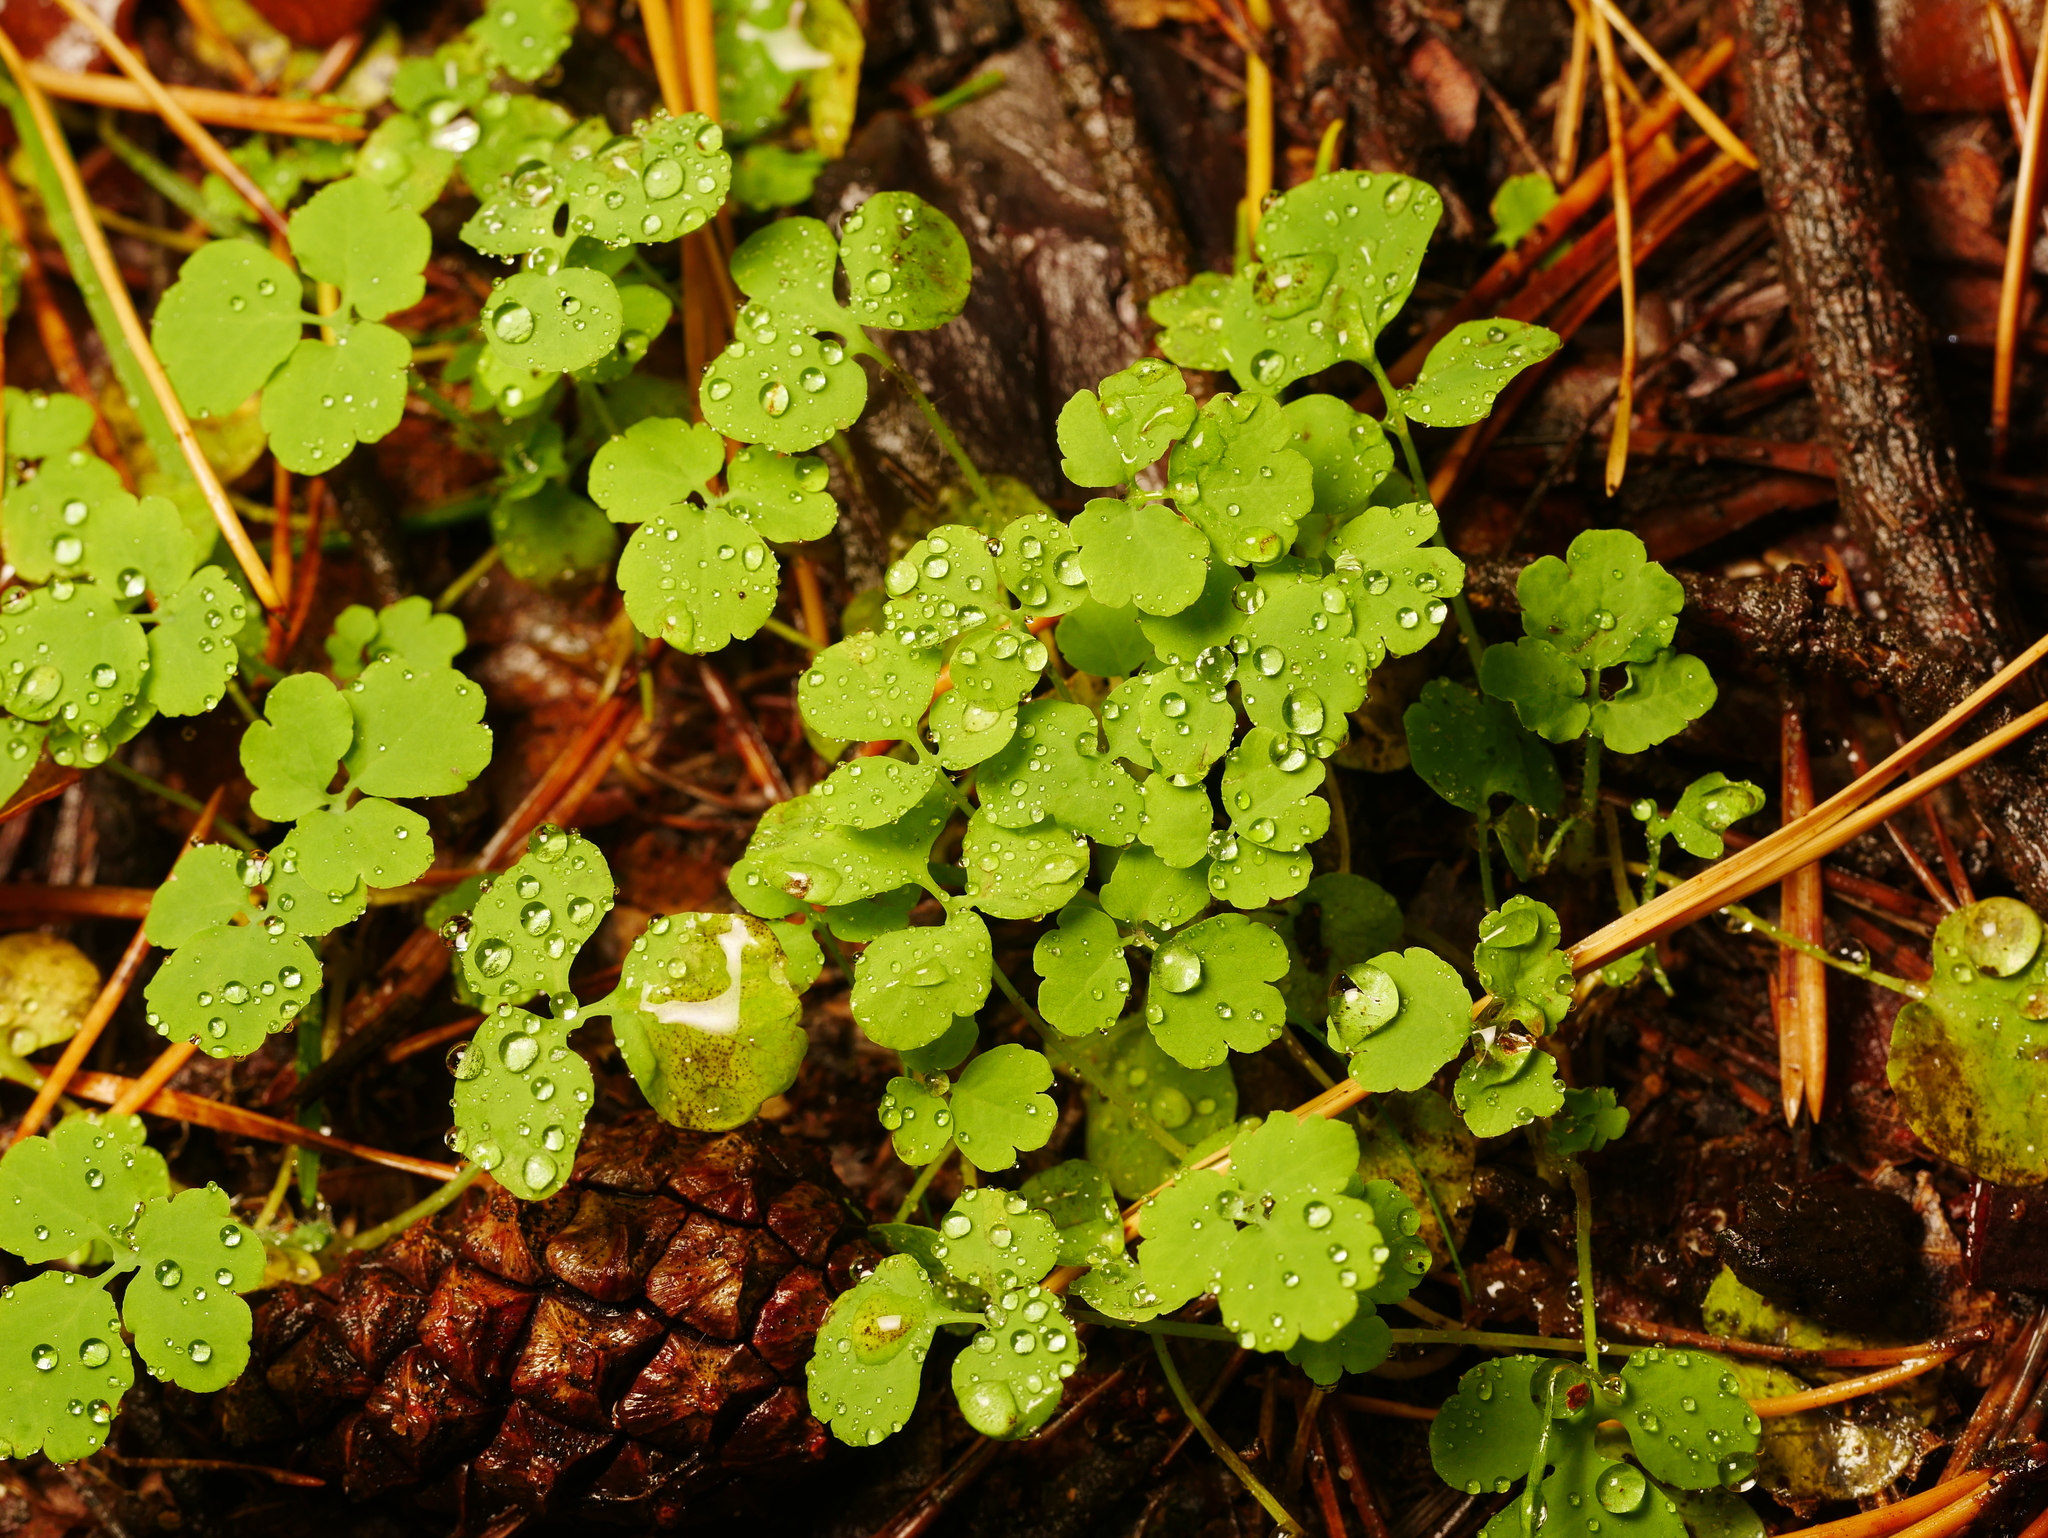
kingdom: Plantae
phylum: Tracheophyta
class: Magnoliopsida
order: Ranunculales
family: Papaveraceae
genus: Chelidonium
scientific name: Chelidonium majus
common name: Greater celandine
